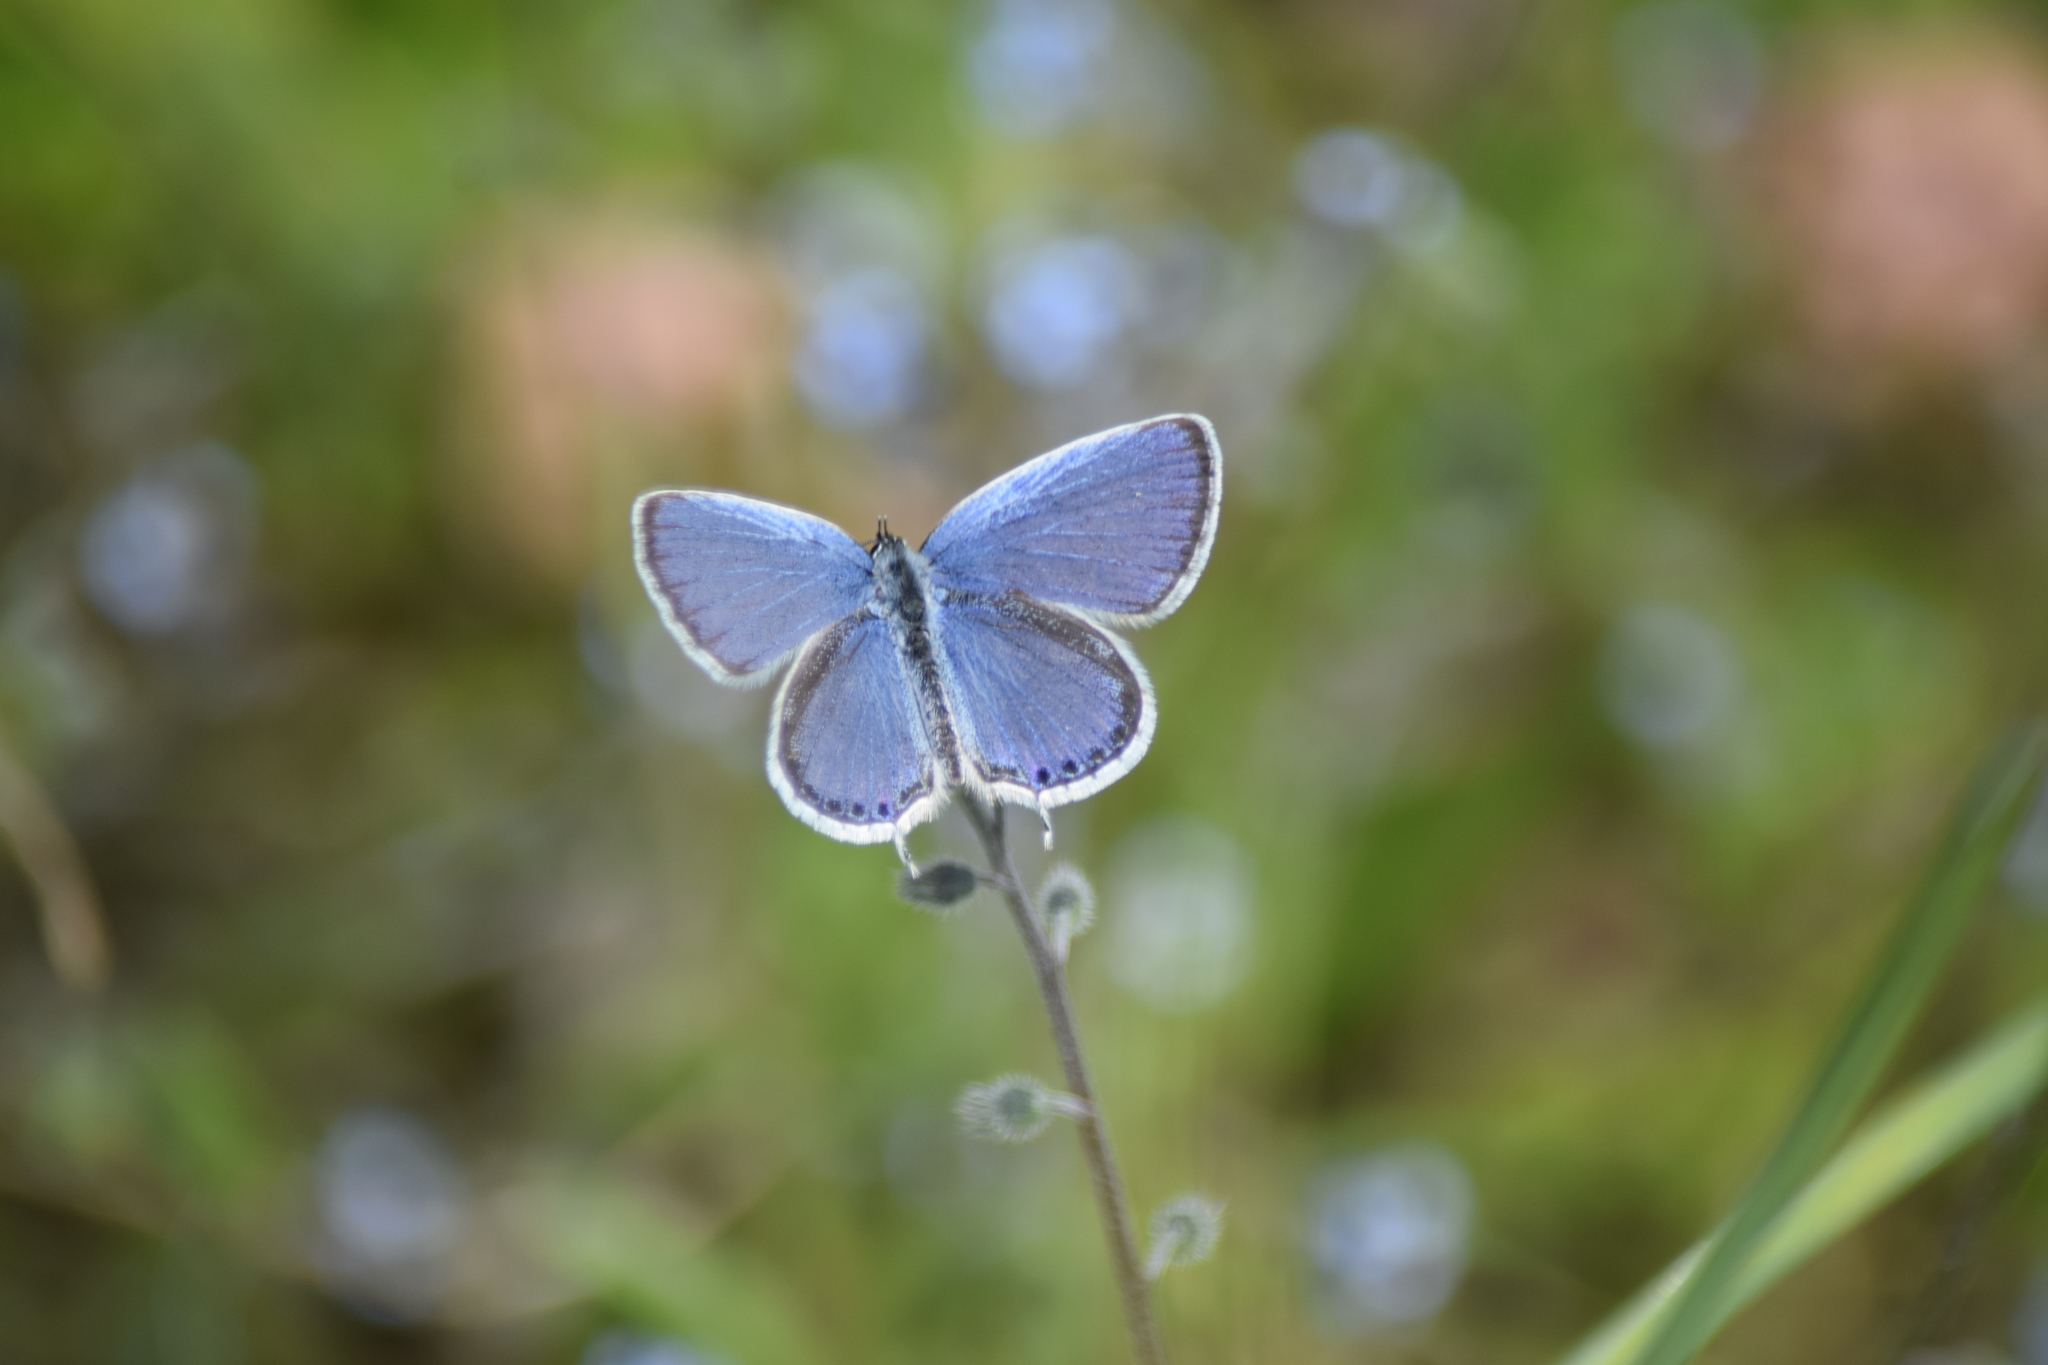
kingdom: Animalia
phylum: Arthropoda
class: Insecta
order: Lepidoptera
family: Lycaenidae
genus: Elkalyce
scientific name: Elkalyce comyntas
